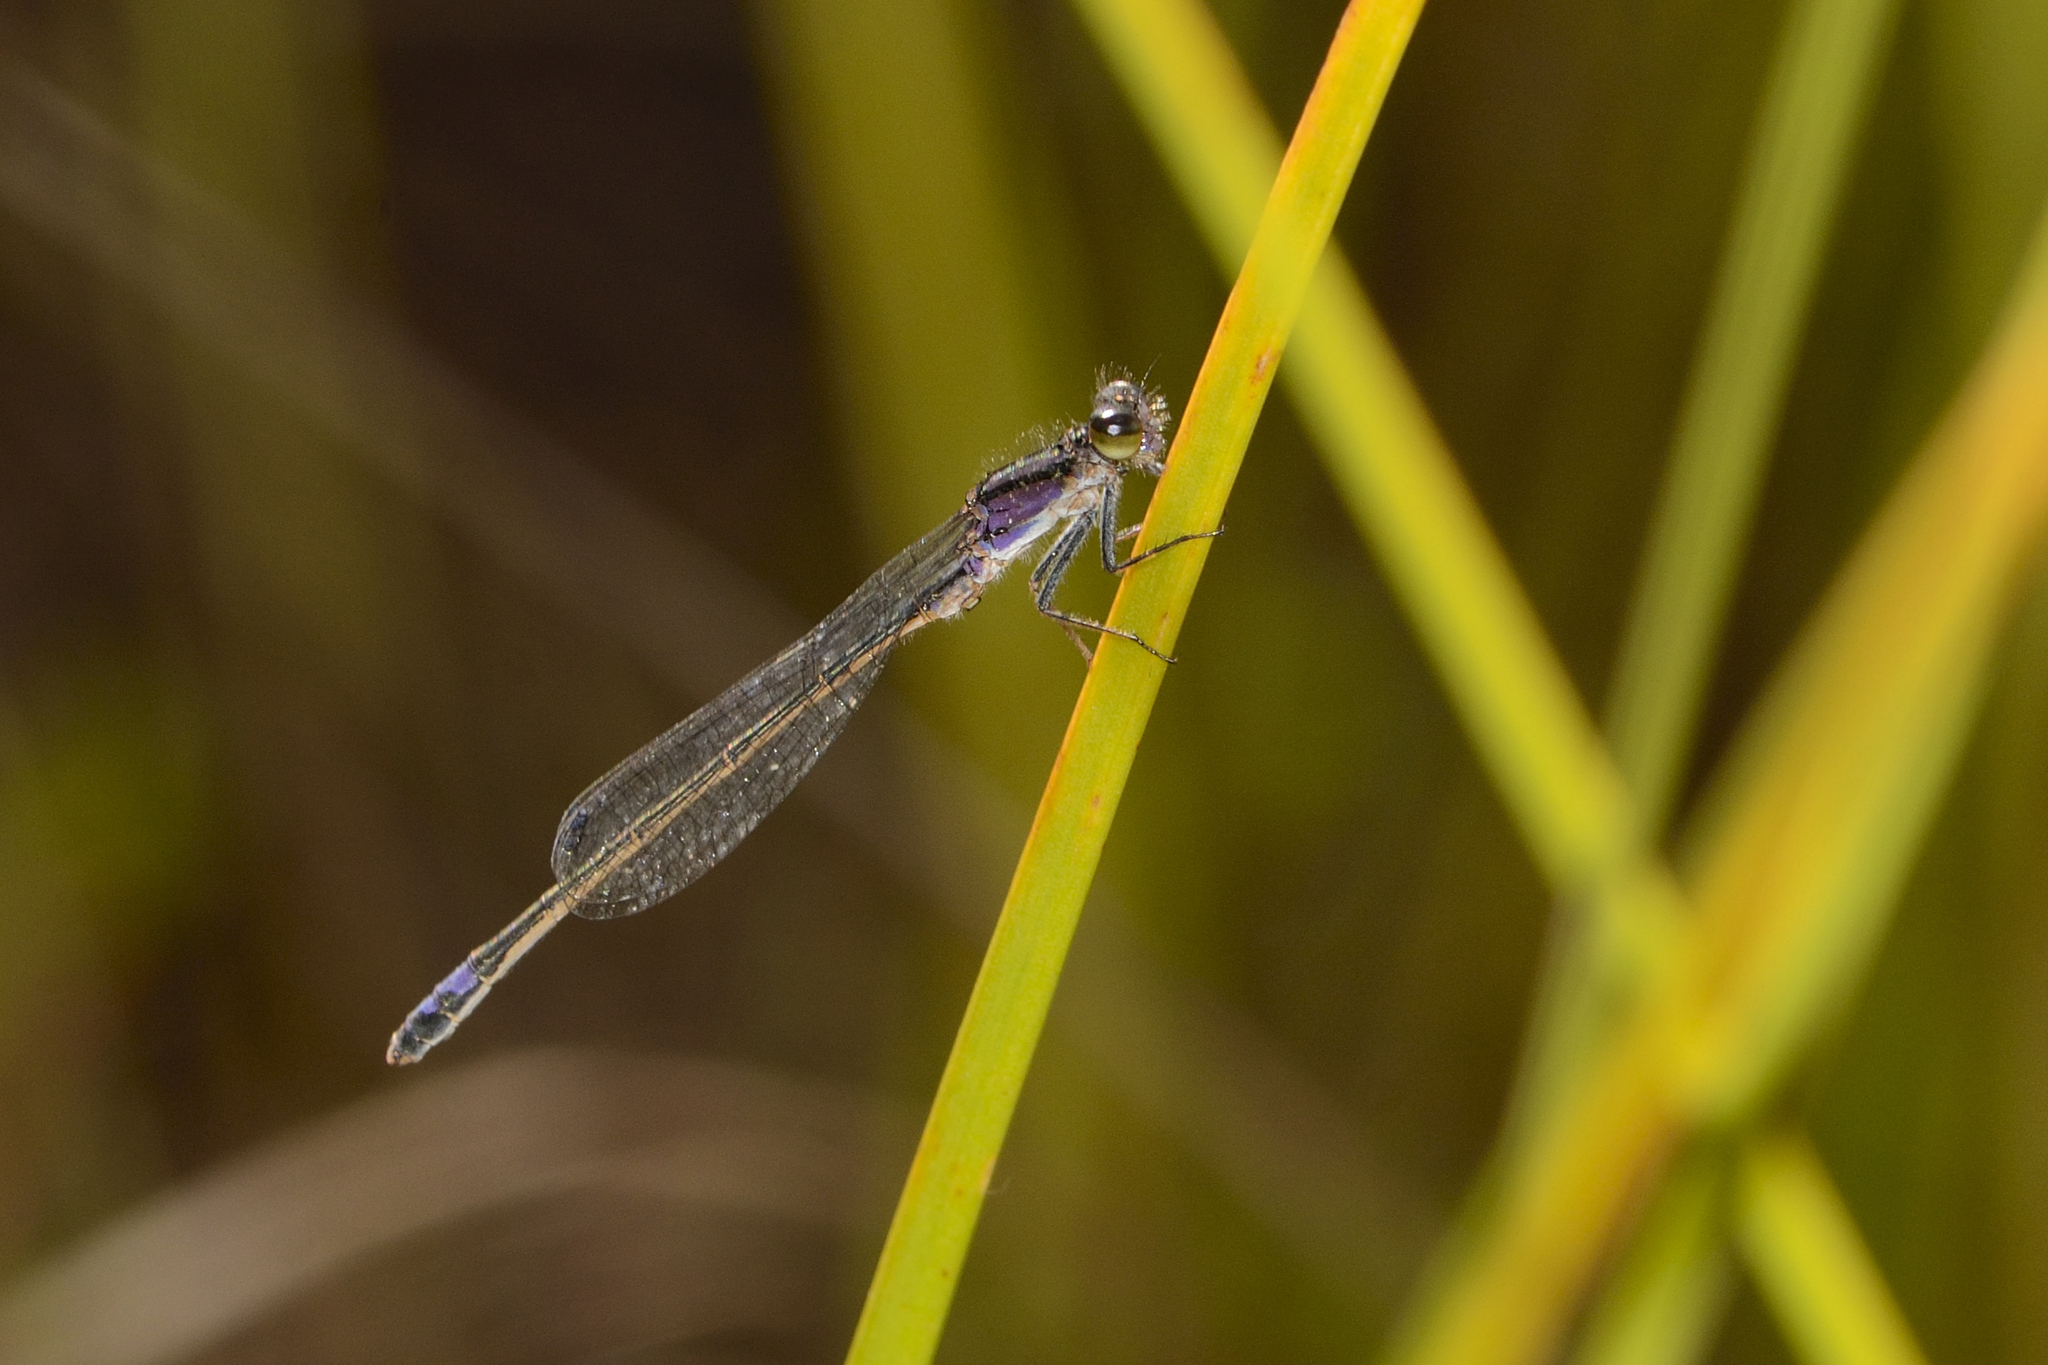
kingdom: Animalia
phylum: Arthropoda
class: Insecta
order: Odonata
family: Coenagrionidae
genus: Proischnura
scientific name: Proischnura polychromatica
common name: Mauve bluet
